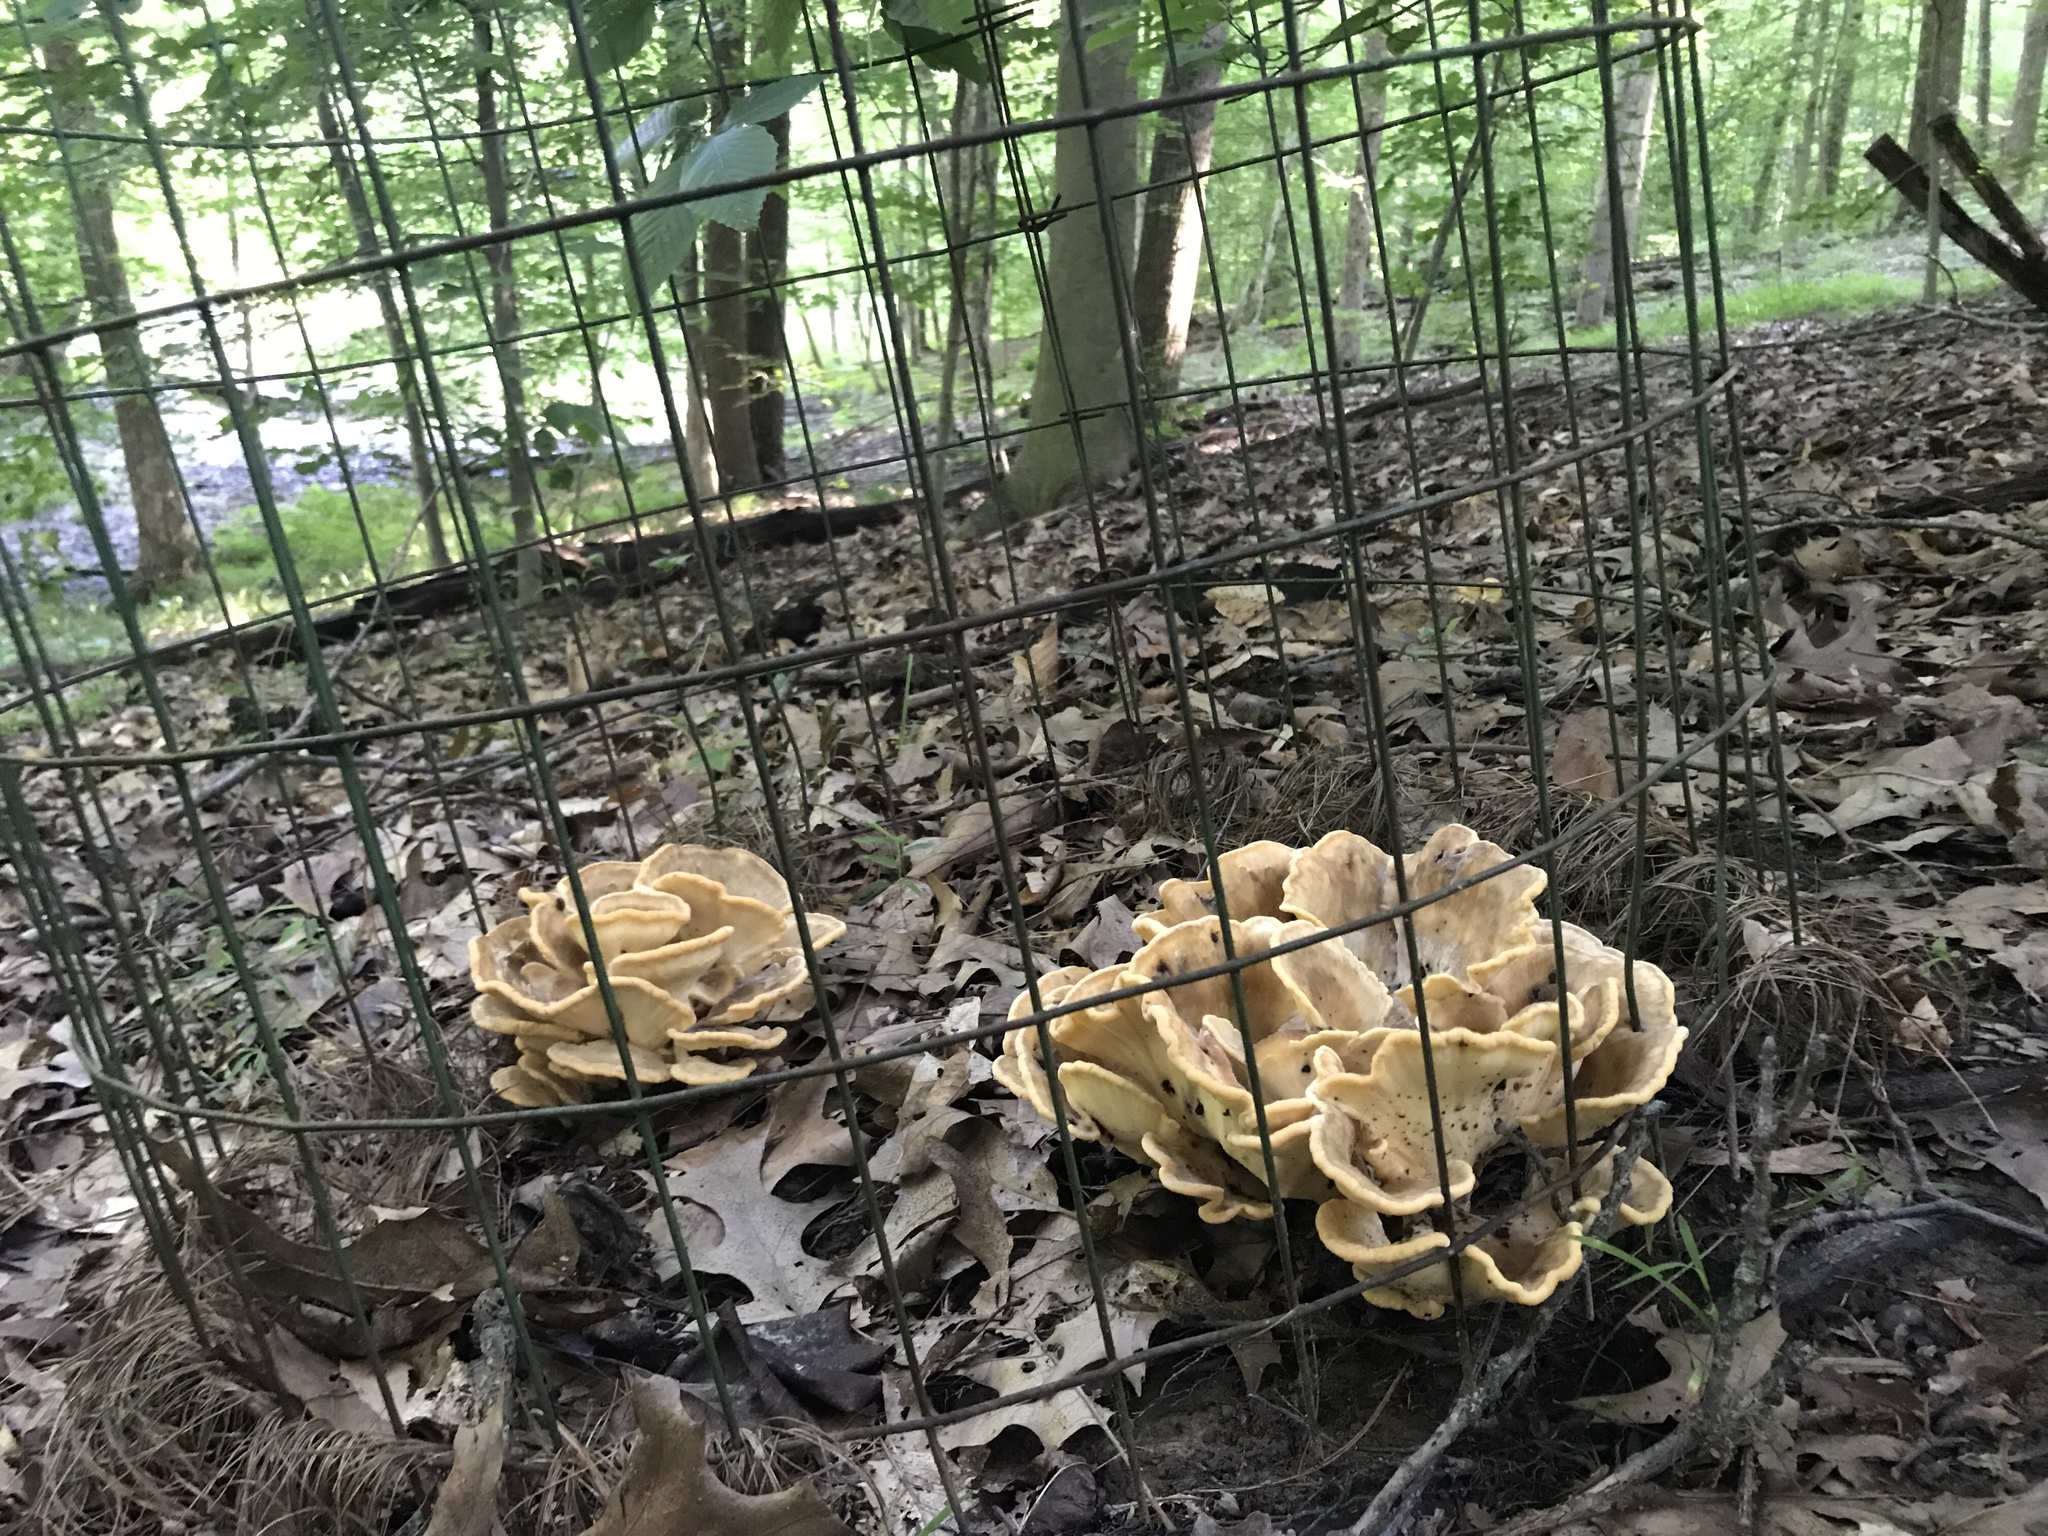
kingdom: Fungi
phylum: Basidiomycota
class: Agaricomycetes
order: Polyporales
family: Meripilaceae
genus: Meripilus
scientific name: Meripilus sumstinei
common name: Black-staining polypore
